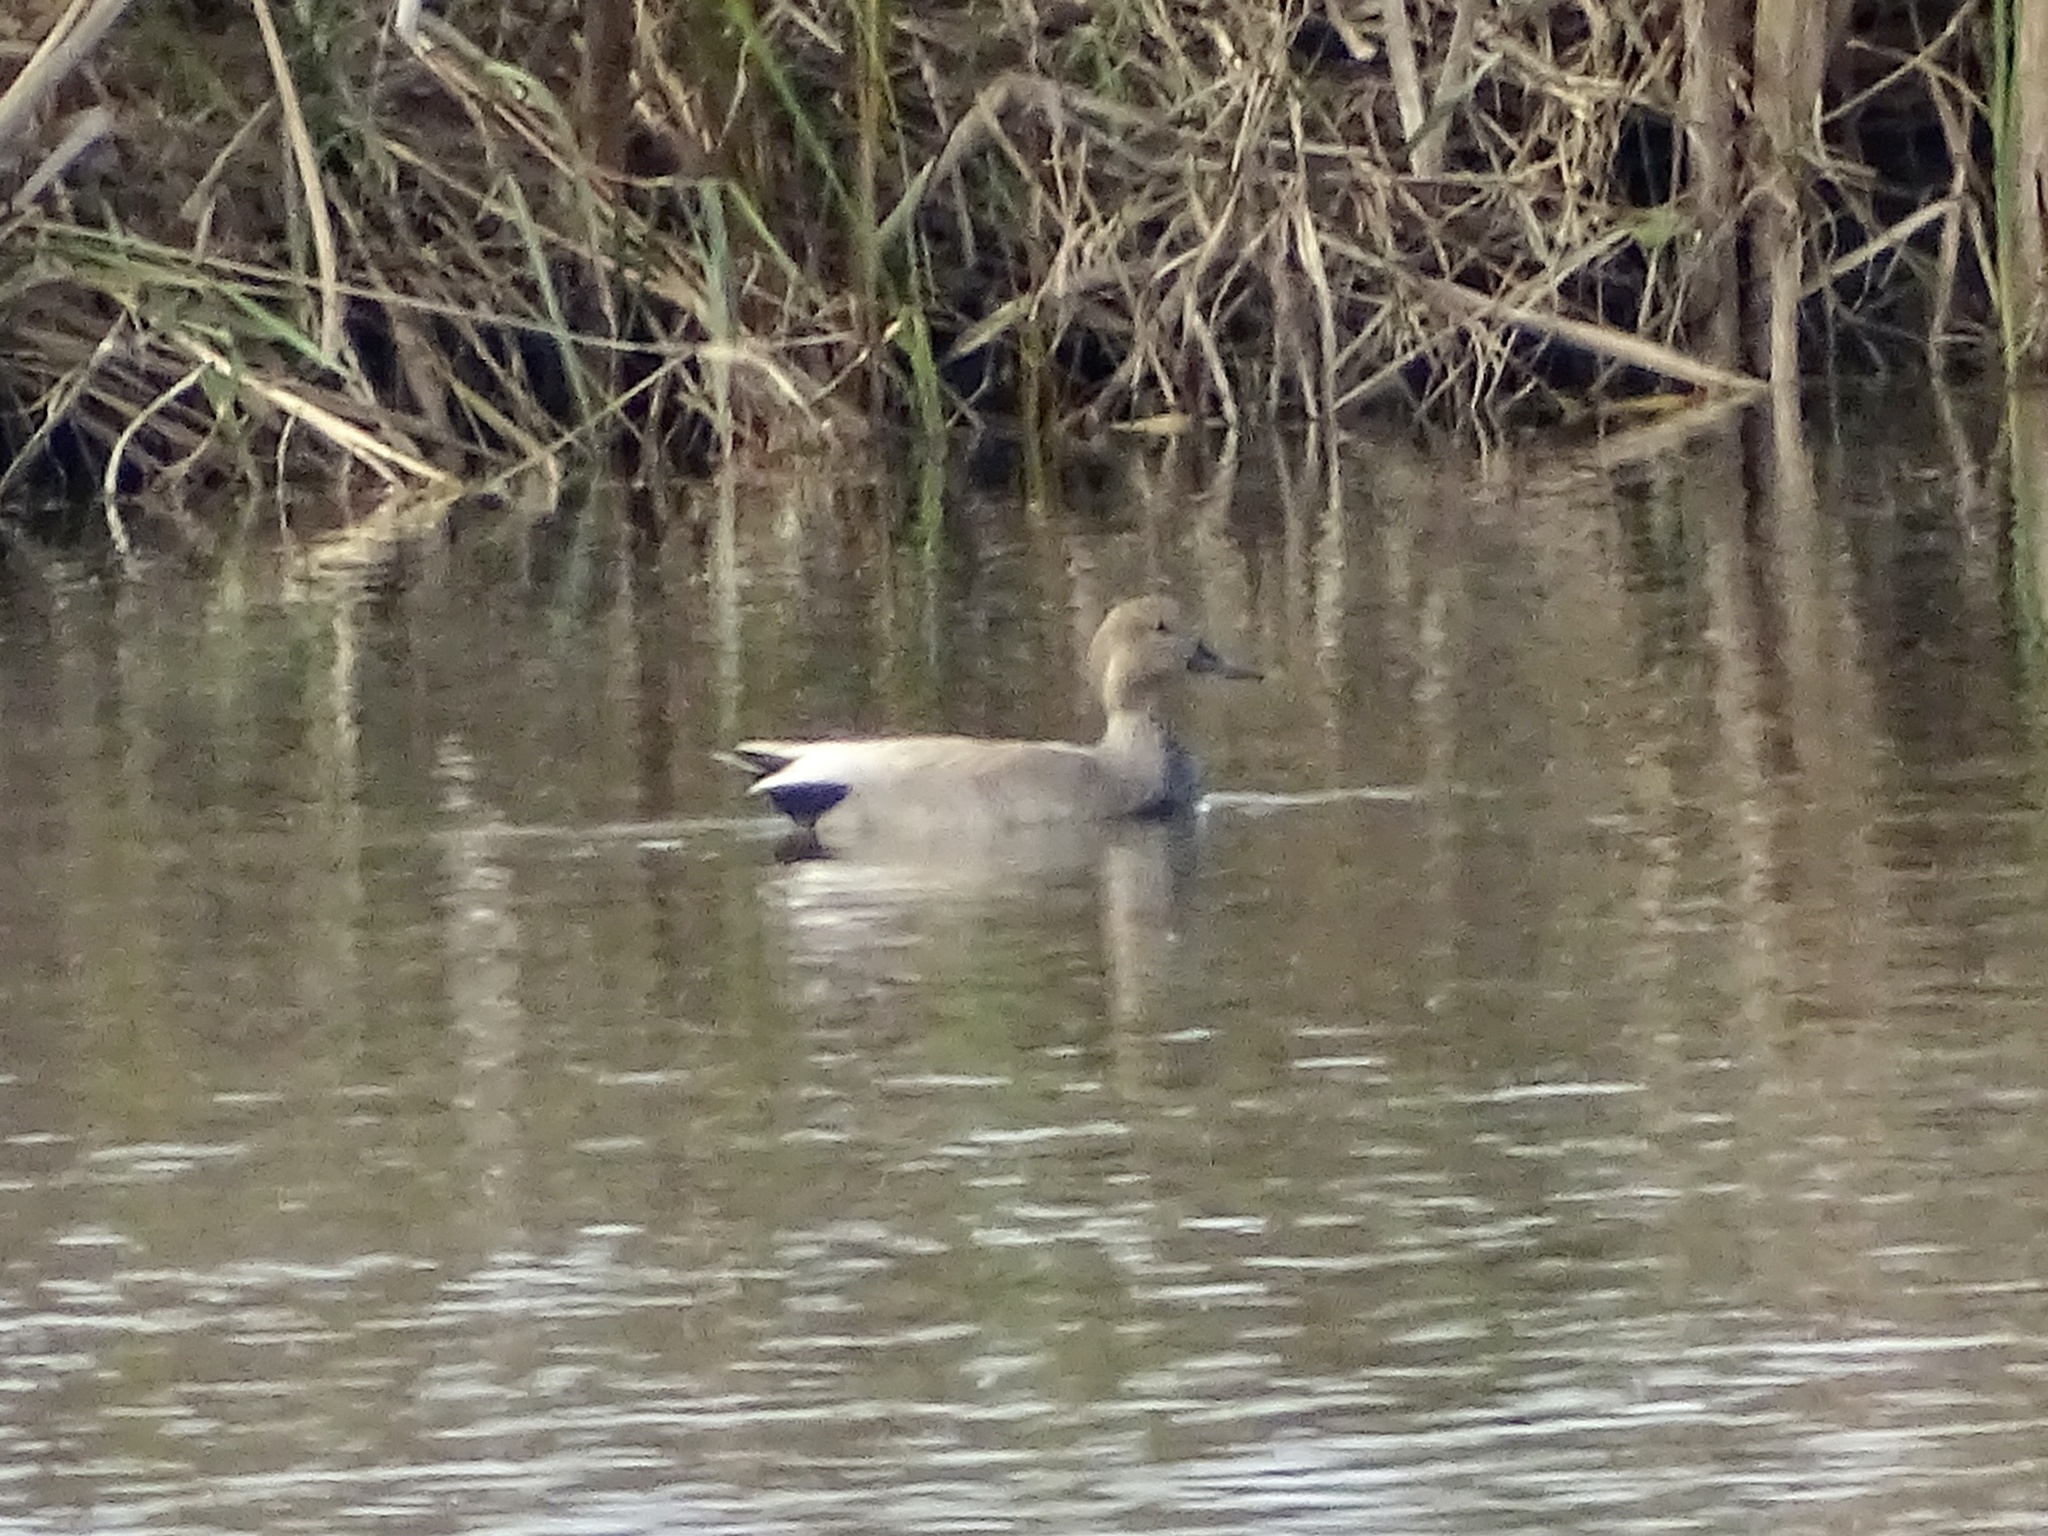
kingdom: Animalia
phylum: Chordata
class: Aves
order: Anseriformes
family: Anatidae
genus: Mareca
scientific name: Mareca strepera
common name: Gadwall
